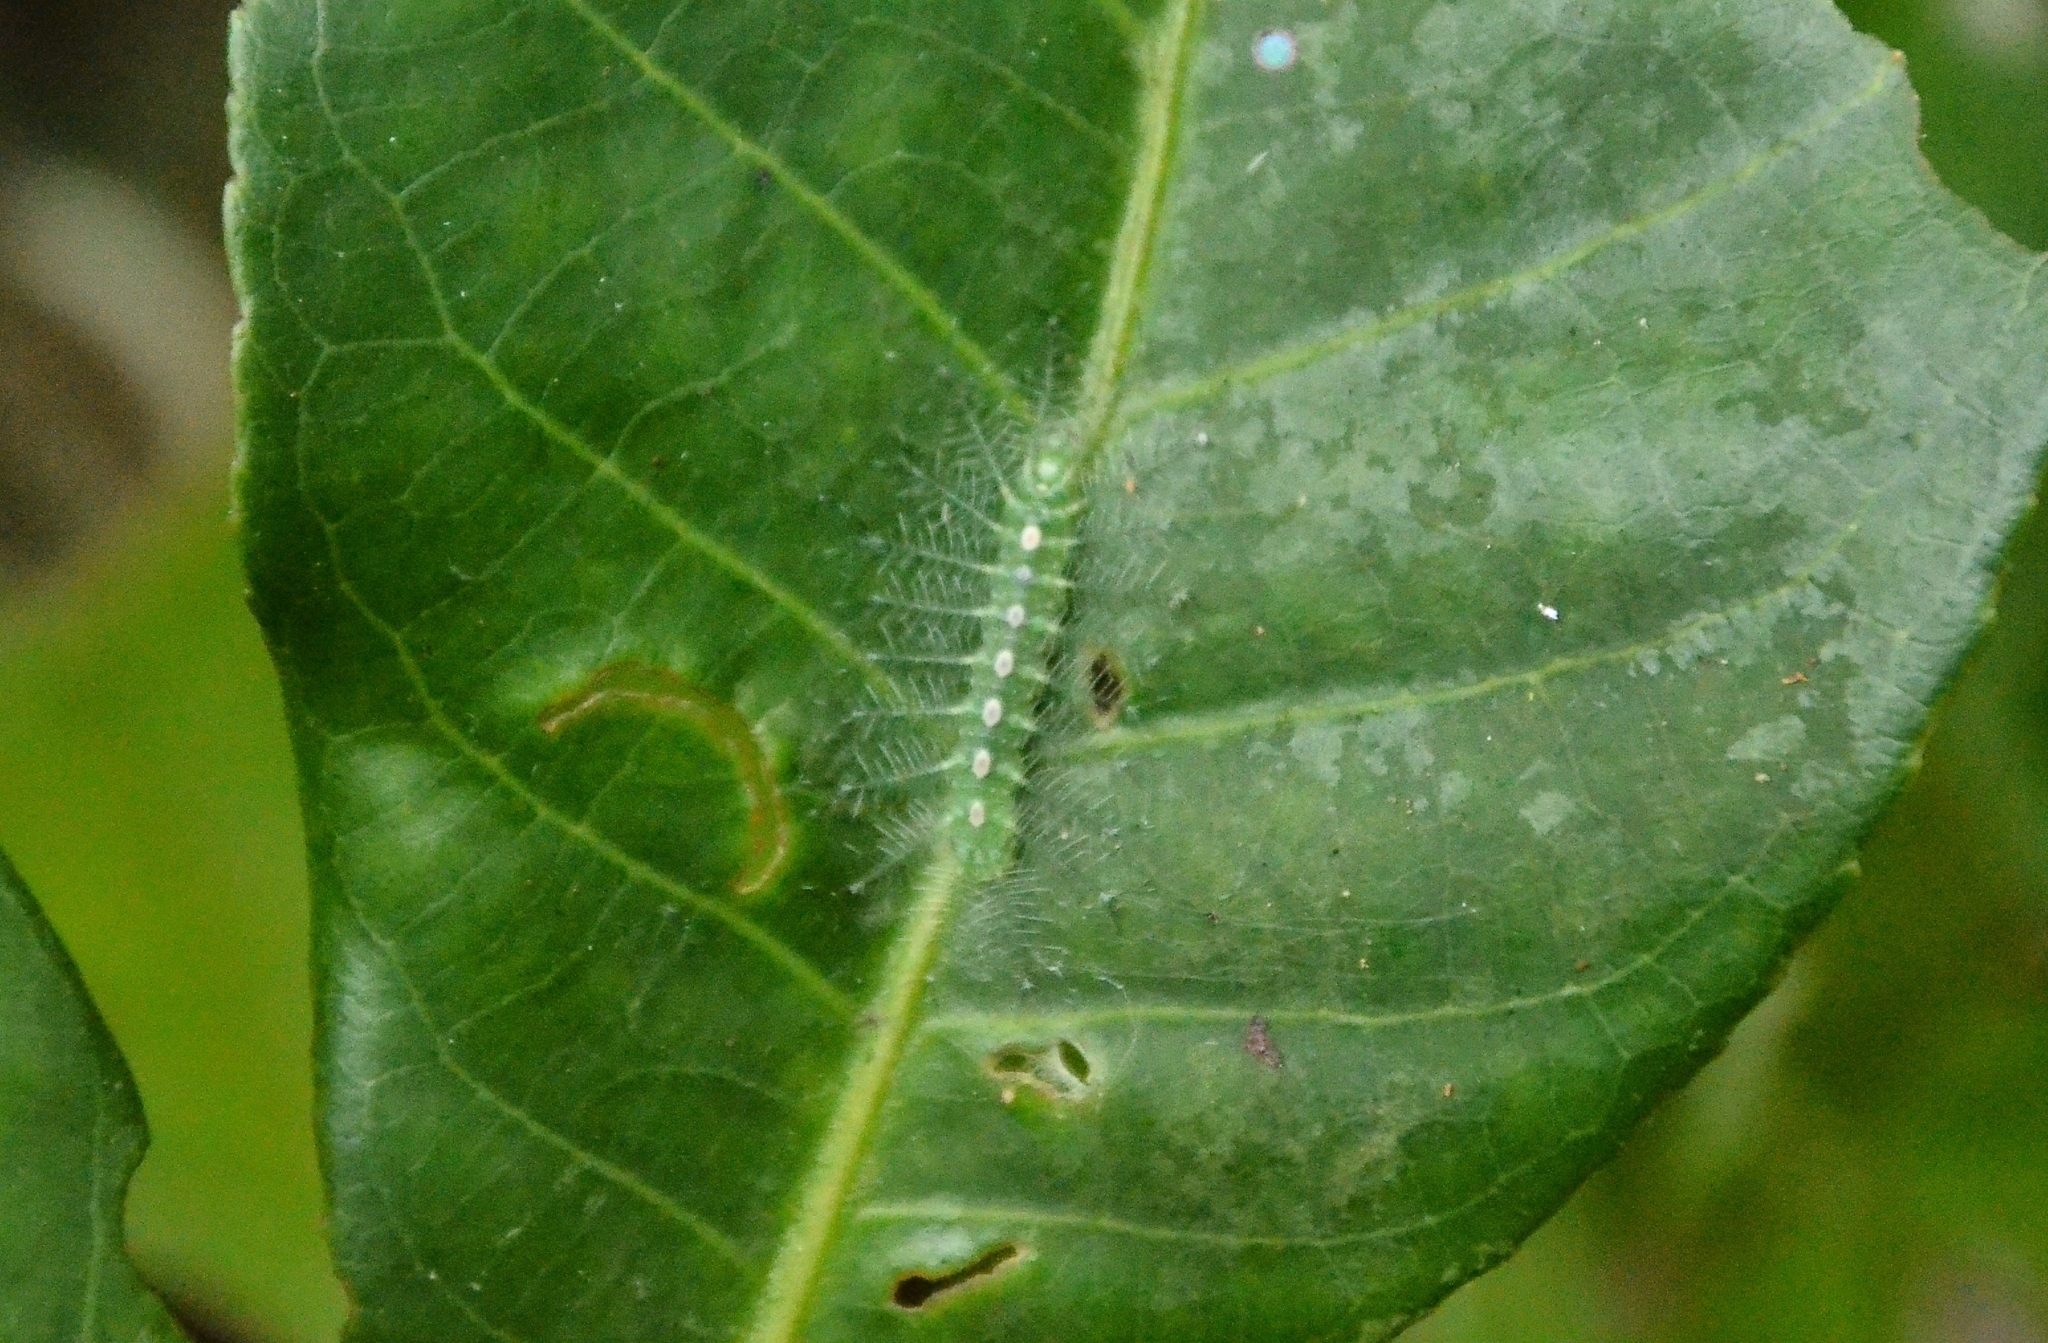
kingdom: Animalia
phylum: Arthropoda
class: Insecta
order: Lepidoptera
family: Nymphalidae
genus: Tanaecia
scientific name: Tanaecia lepidea
